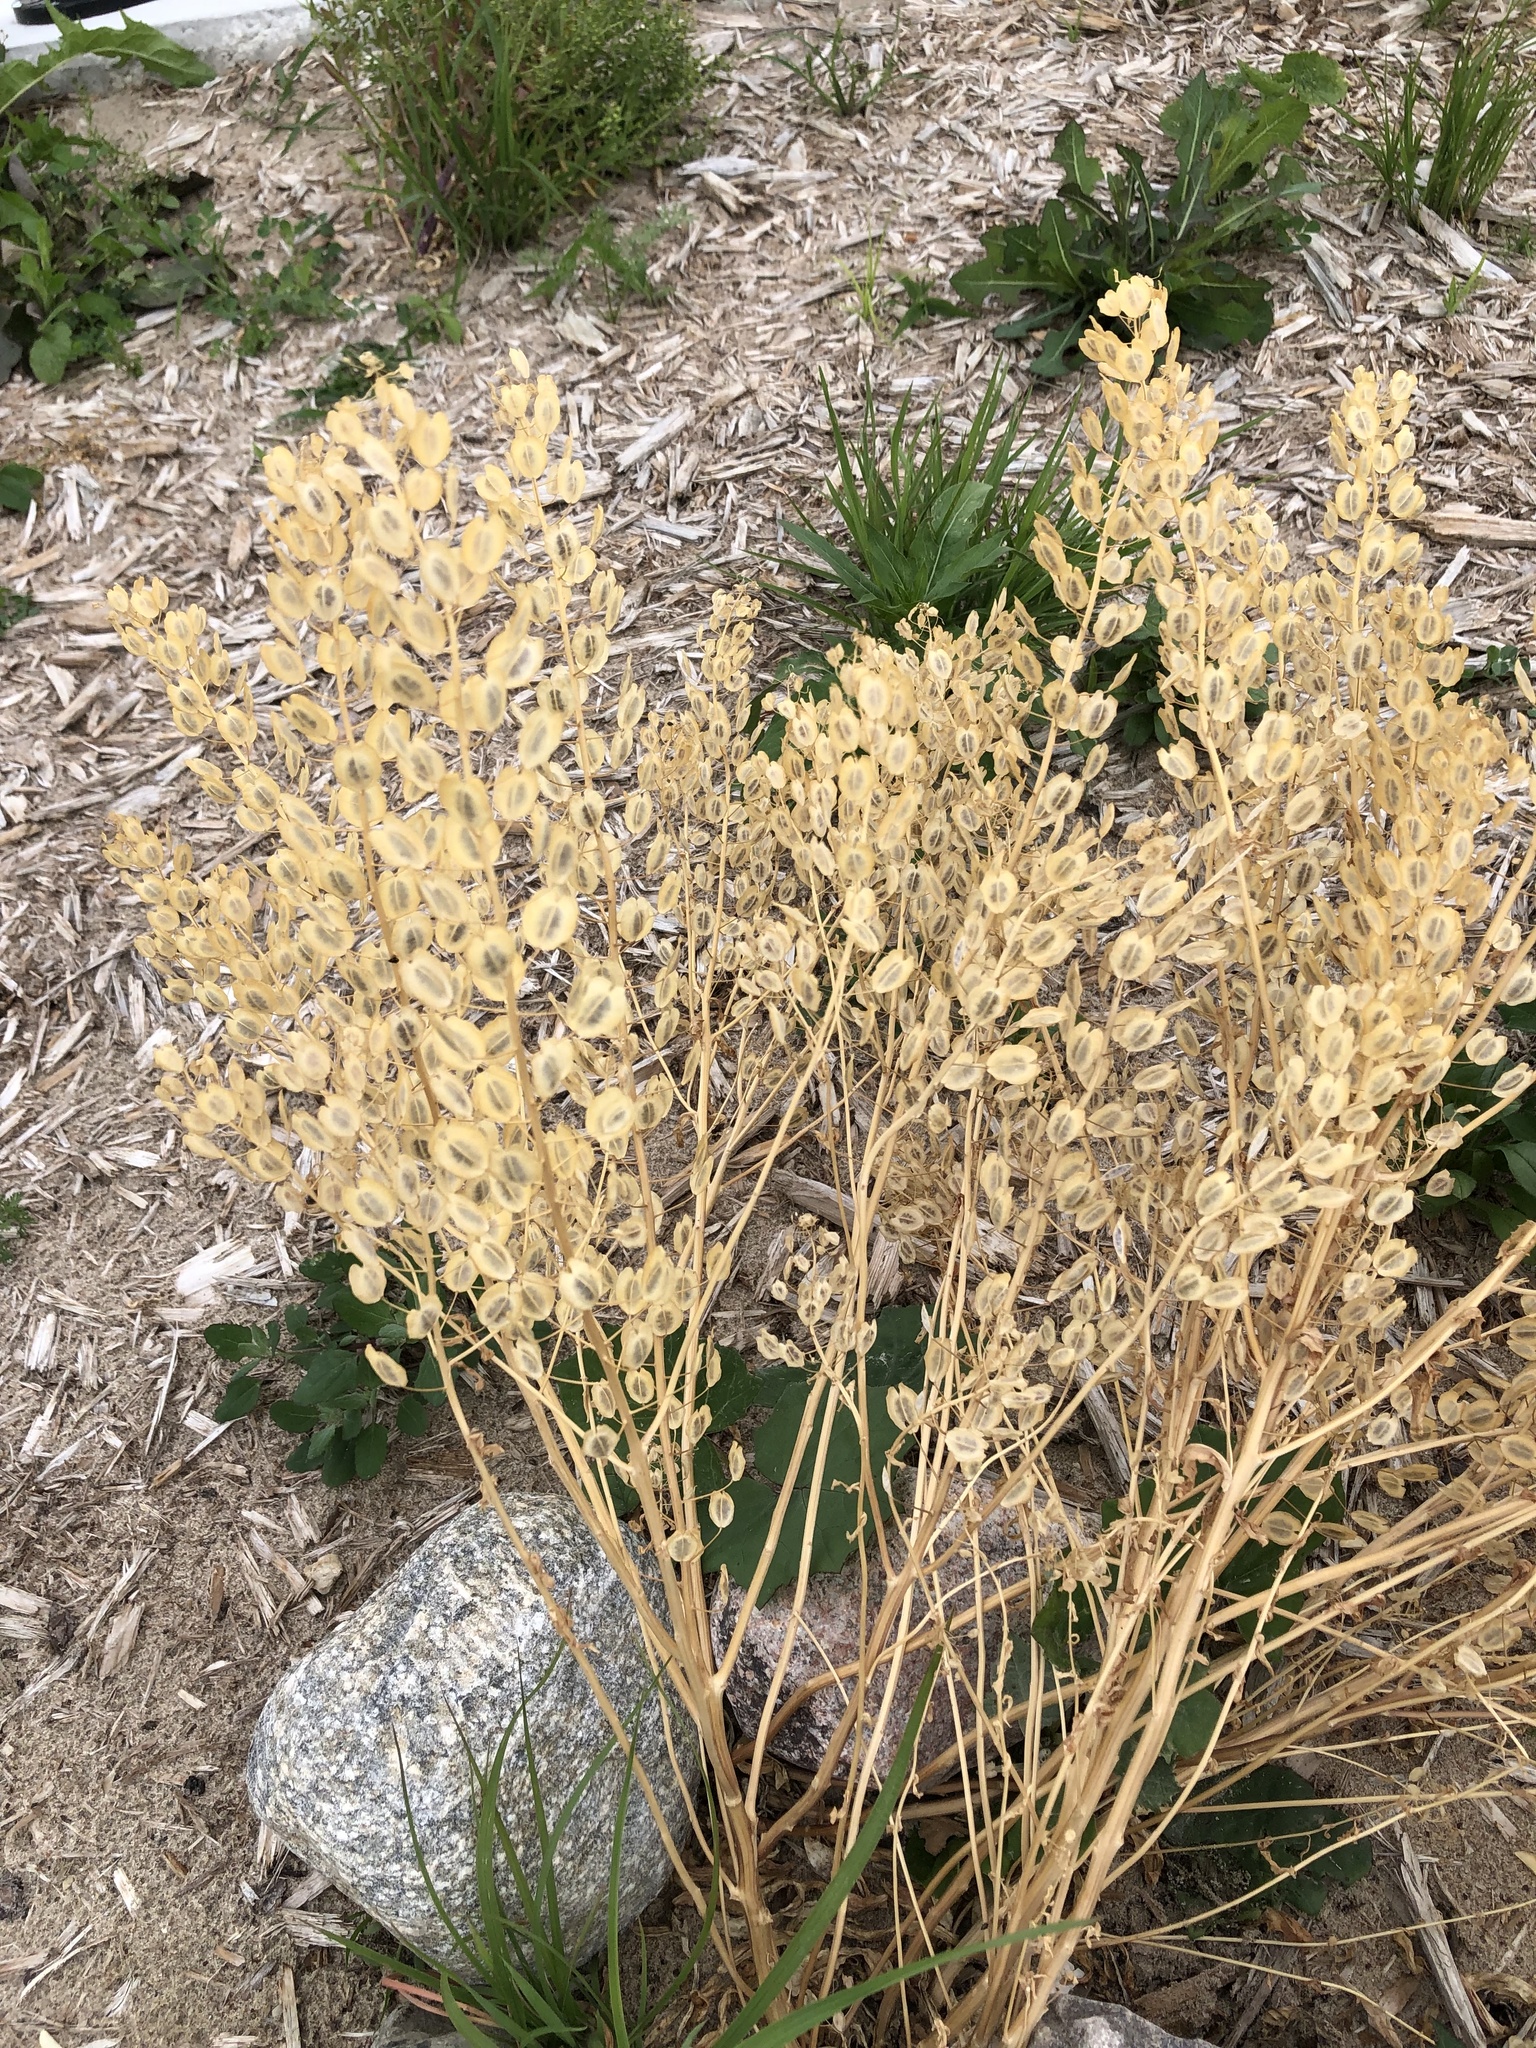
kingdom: Plantae
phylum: Tracheophyta
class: Magnoliopsida
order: Brassicales
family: Brassicaceae
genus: Thlaspi
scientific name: Thlaspi arvense
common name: Field pennycress
